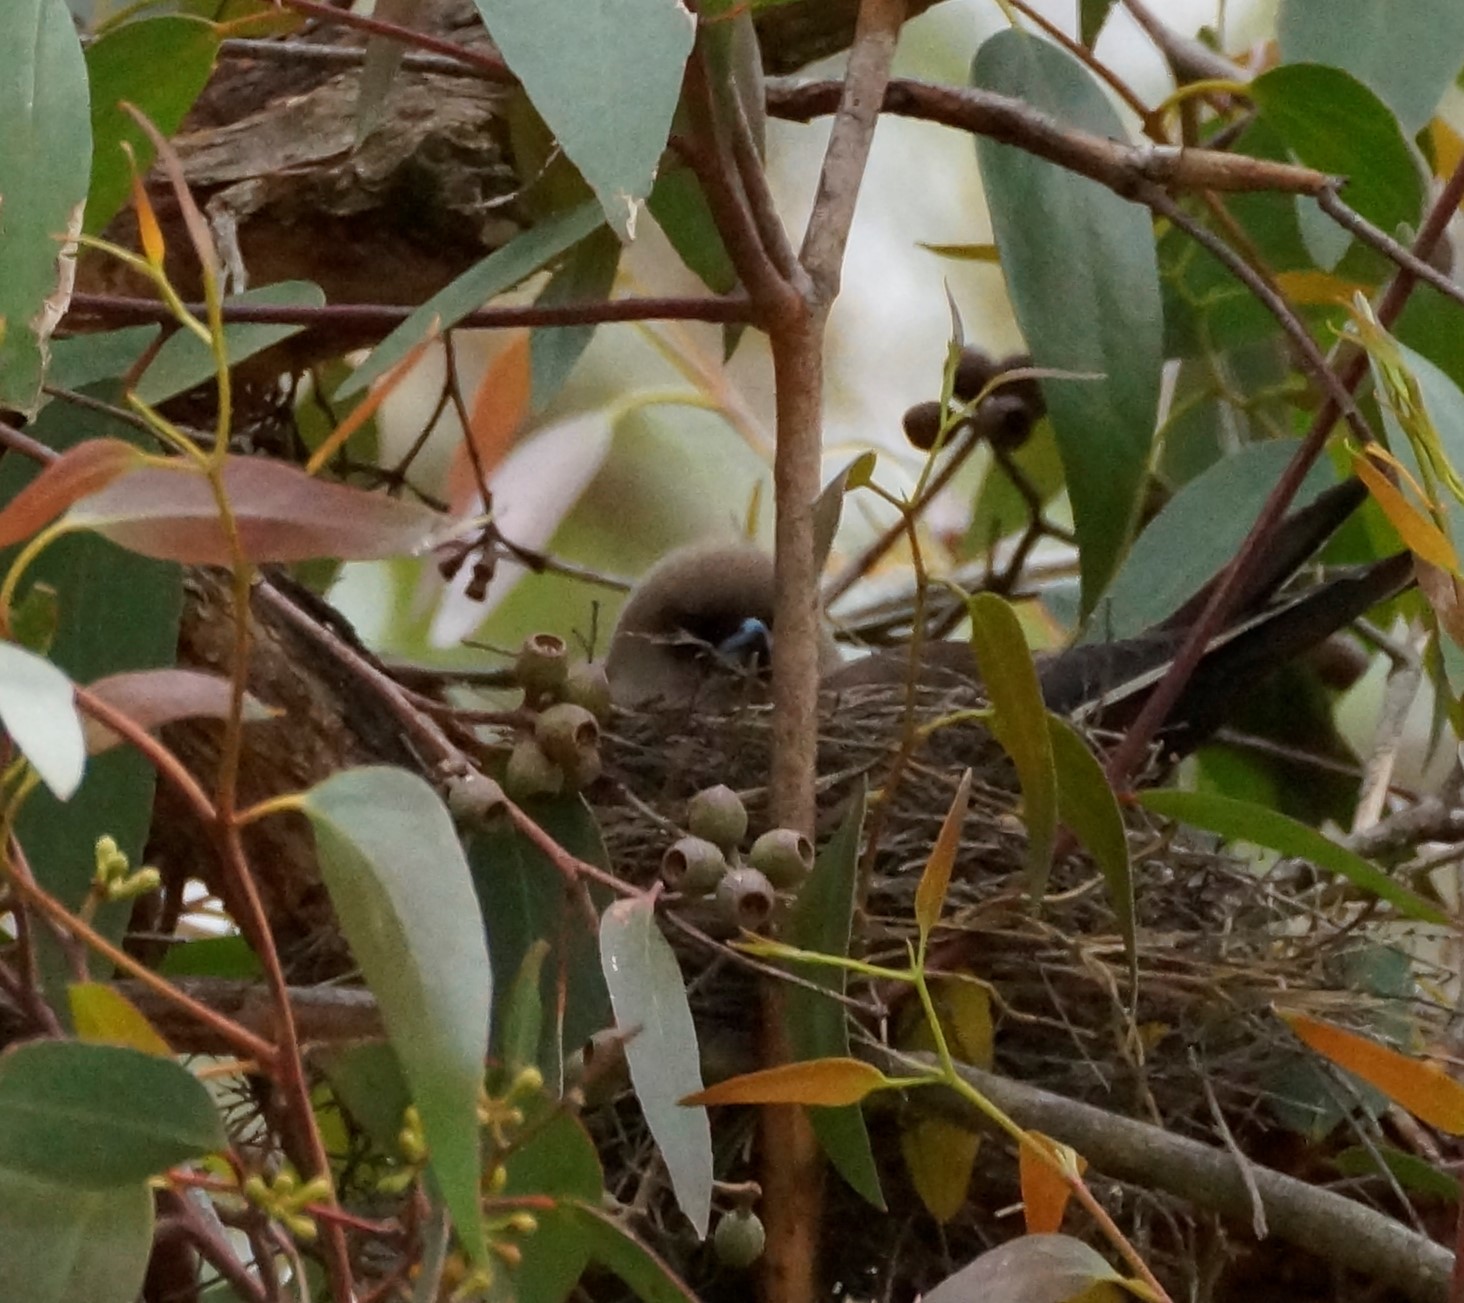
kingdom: Animalia
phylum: Chordata
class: Aves
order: Passeriformes
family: Artamidae
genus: Artamus
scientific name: Artamus cyanopterus
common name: Dusky woodswallow
